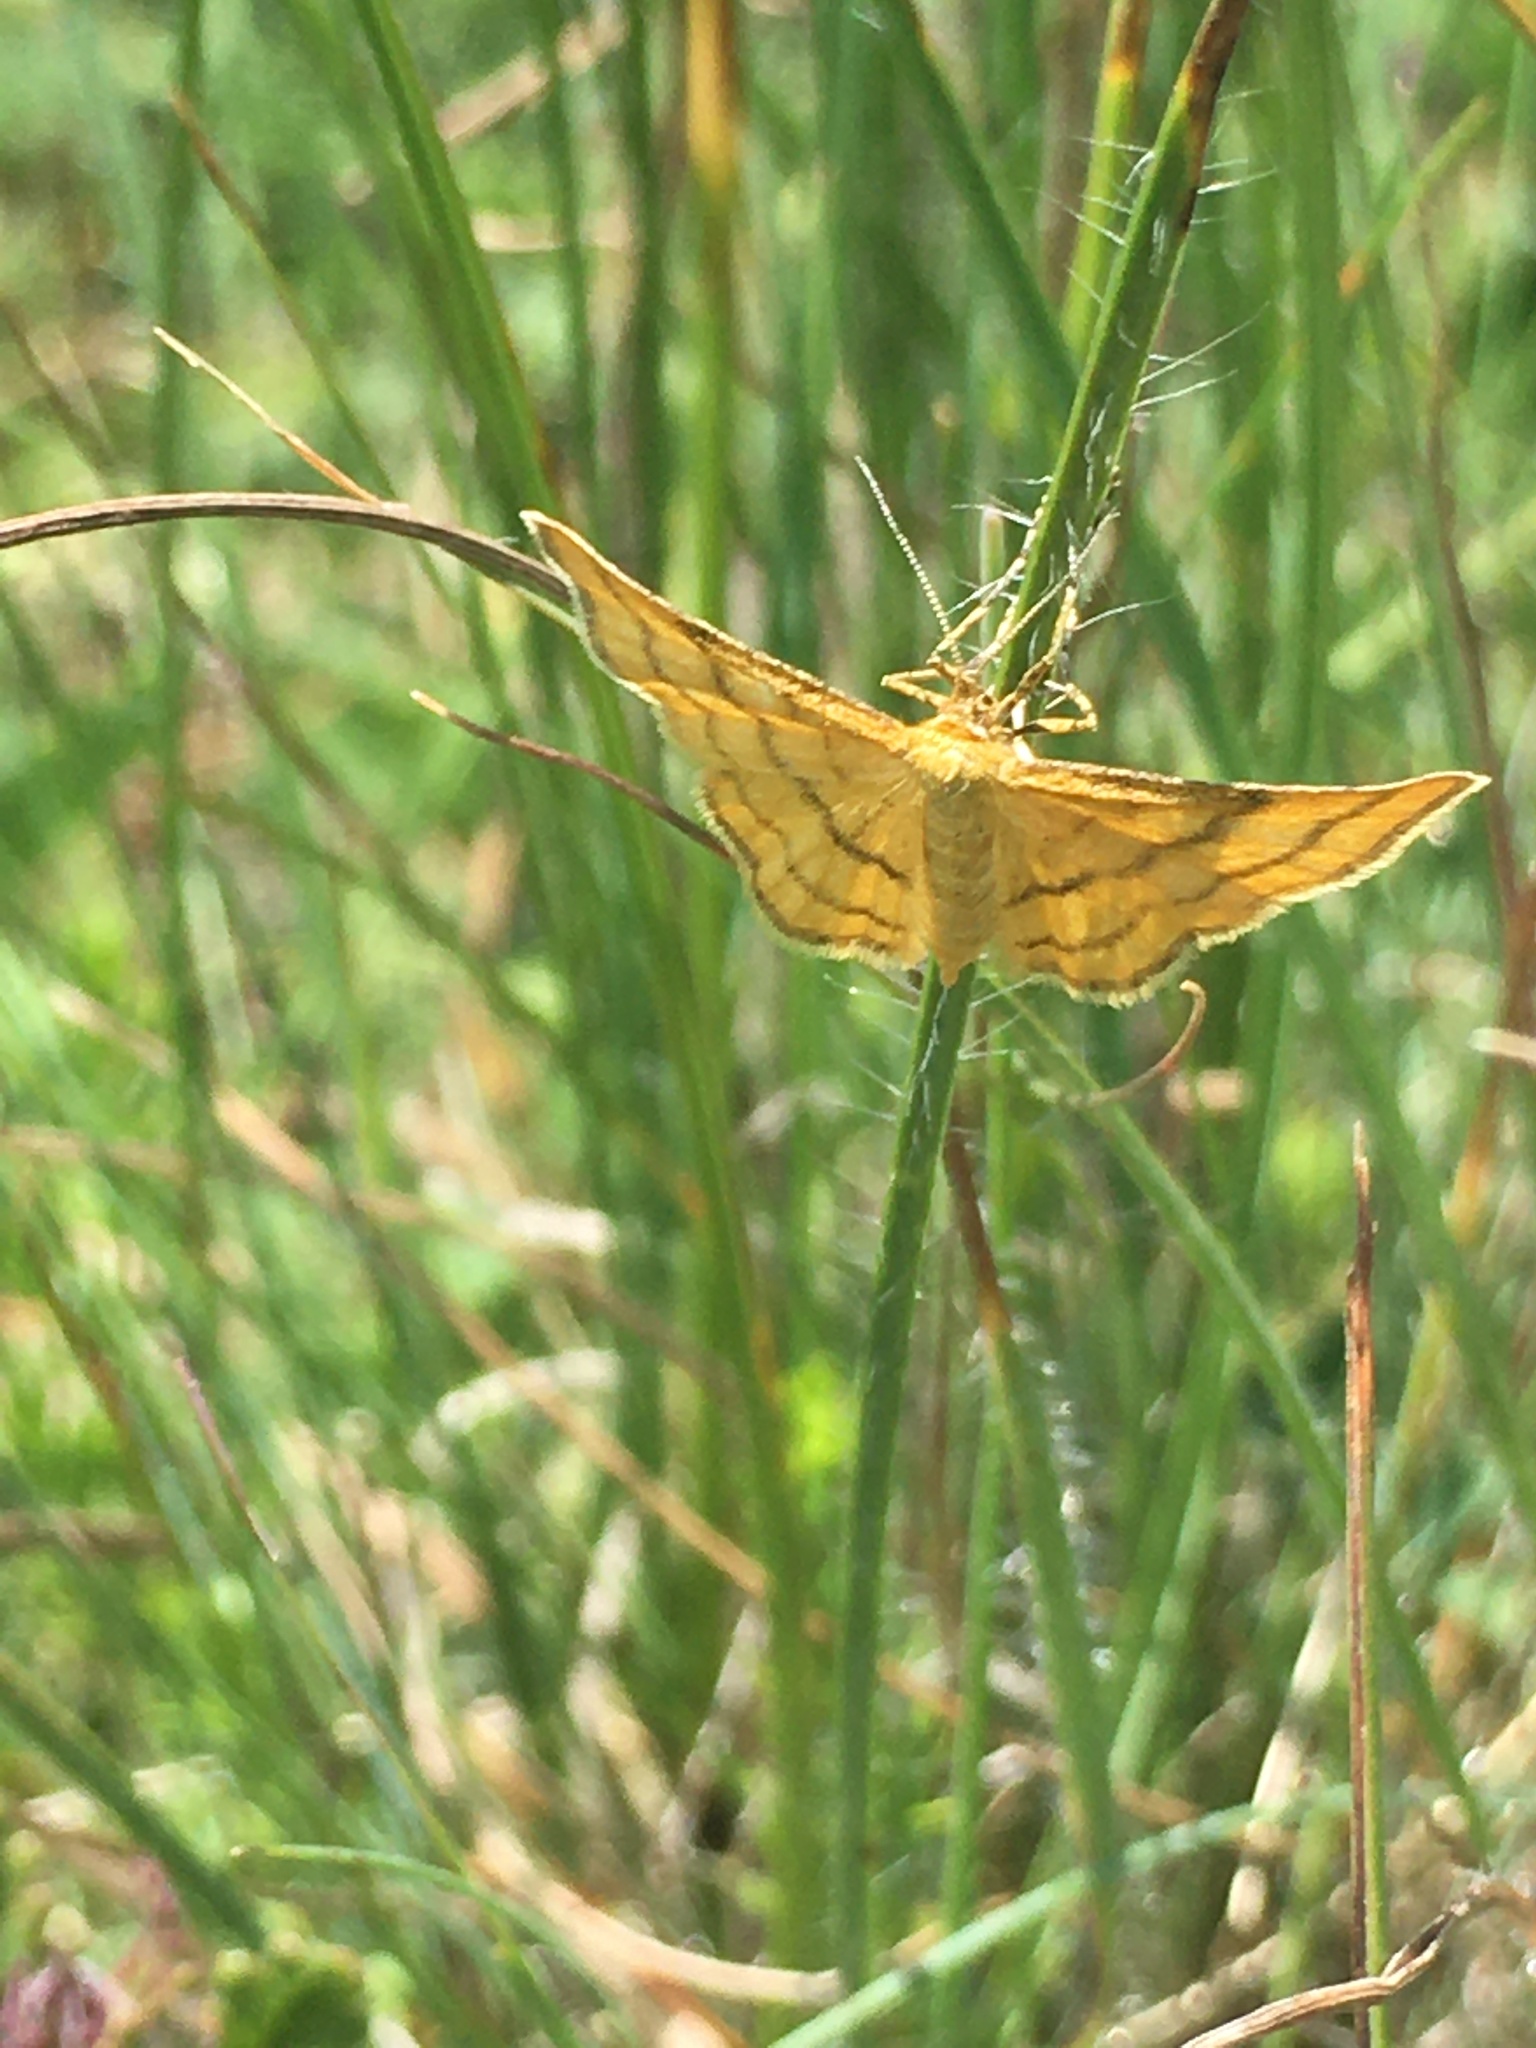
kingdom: Animalia
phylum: Arthropoda
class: Insecta
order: Lepidoptera
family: Geometridae
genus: Idaea
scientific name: Idaea aureolaria
